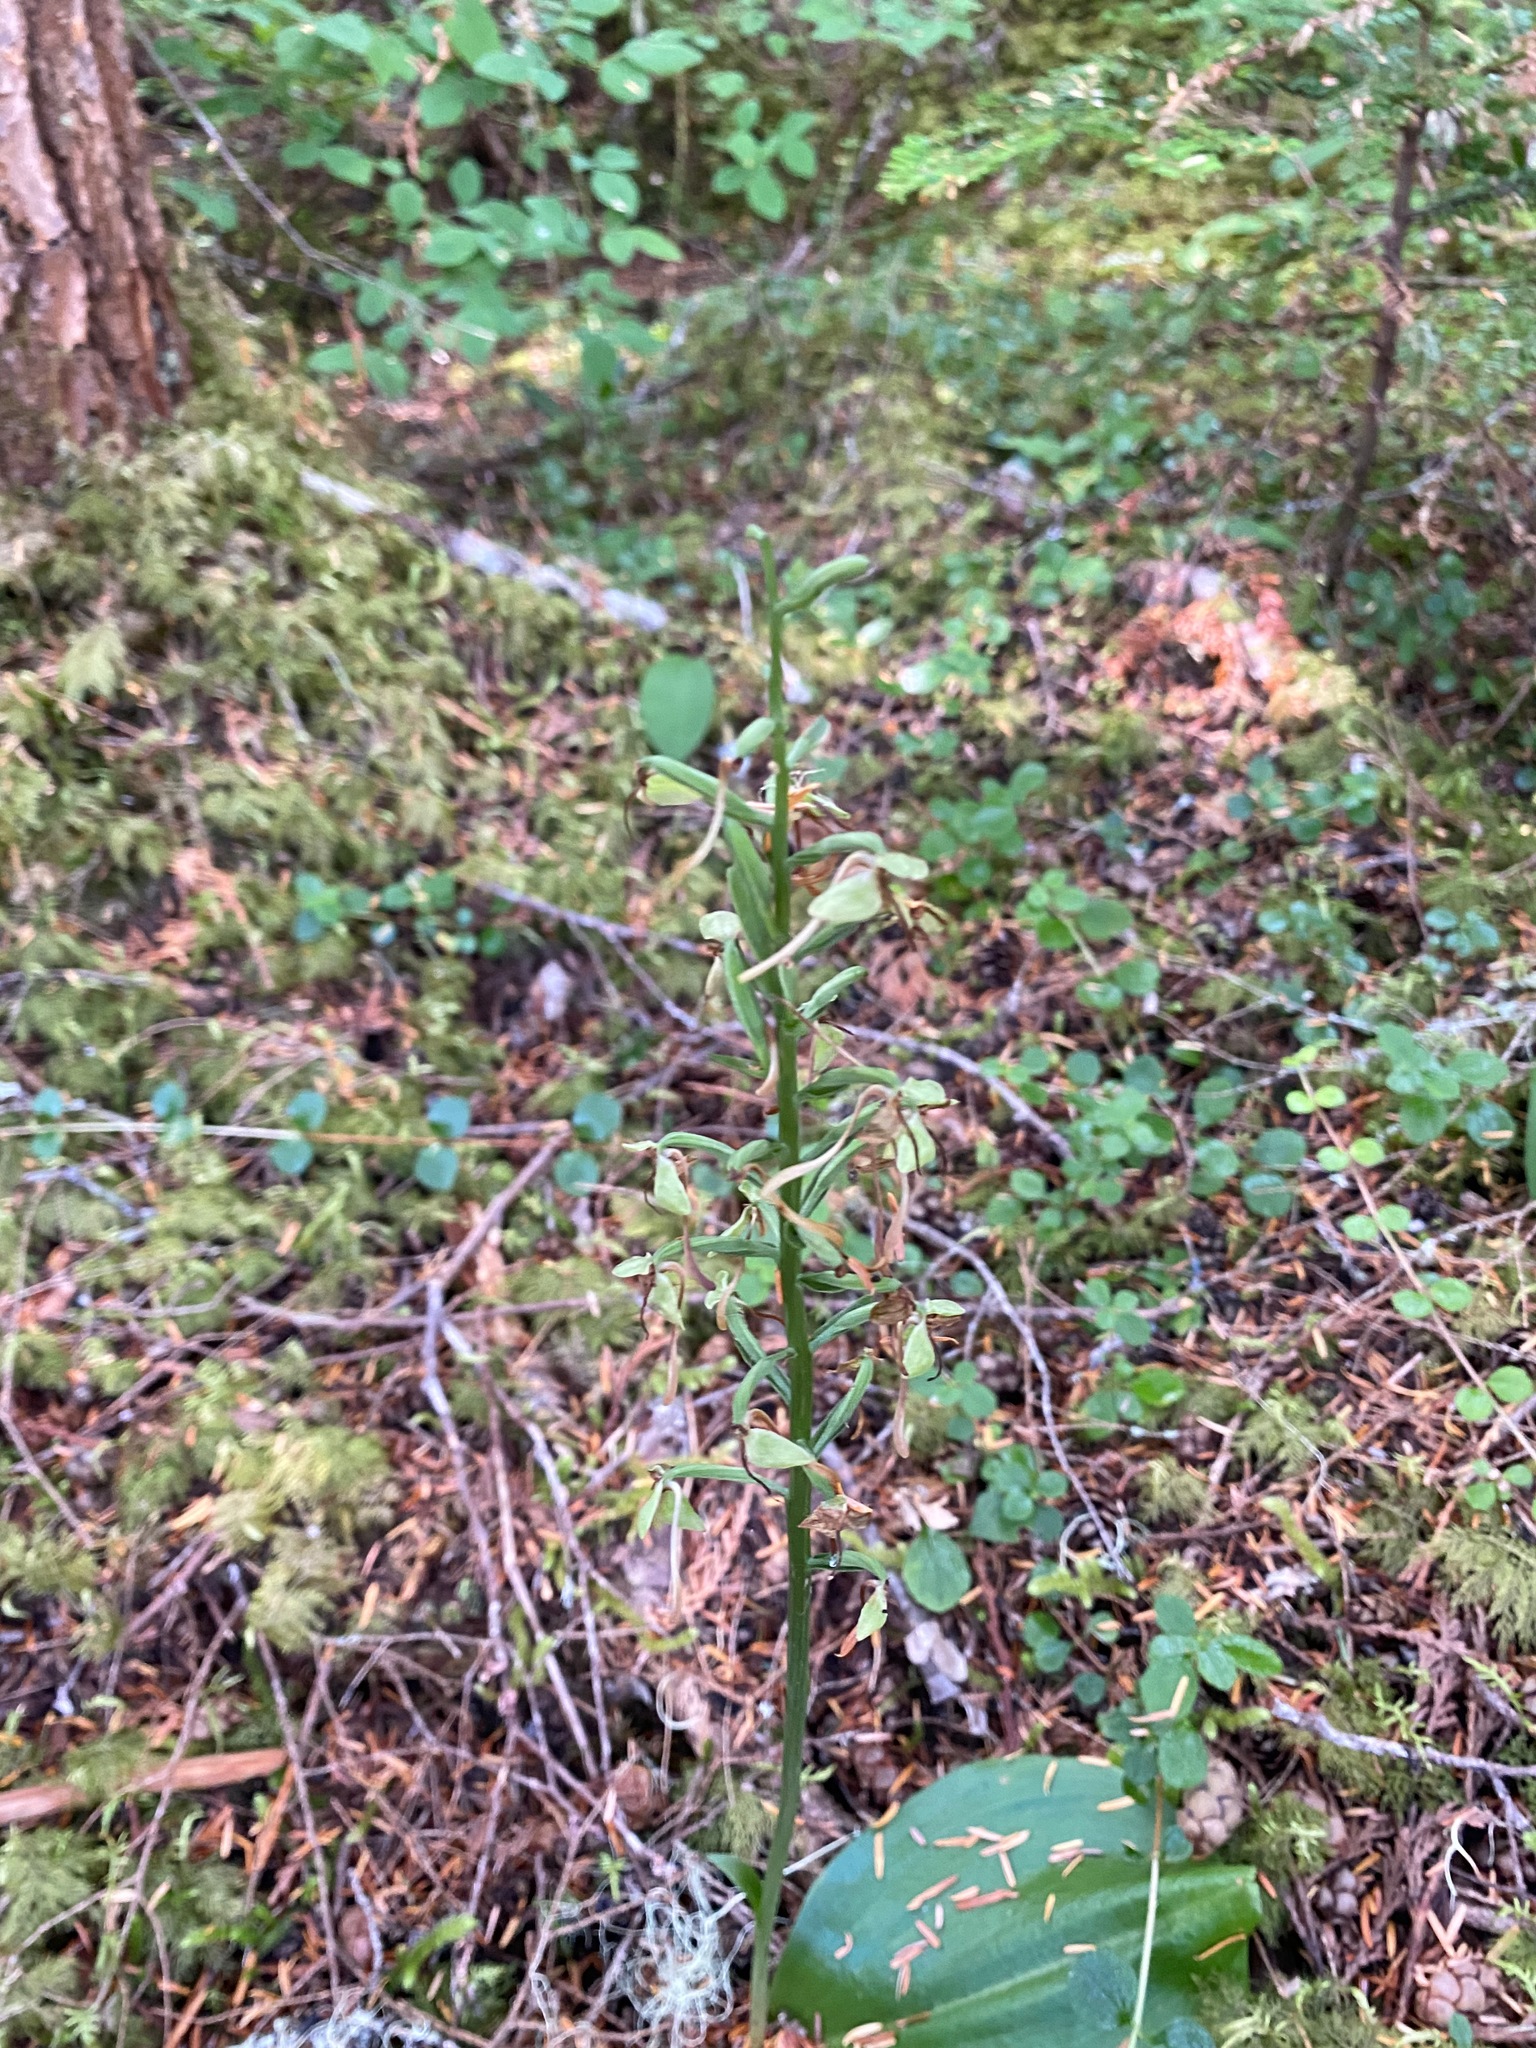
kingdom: Plantae
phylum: Tracheophyta
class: Liliopsida
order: Asparagales
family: Orchidaceae
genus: Platanthera
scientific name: Platanthera orbiculata
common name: Large round-leaved orchid
